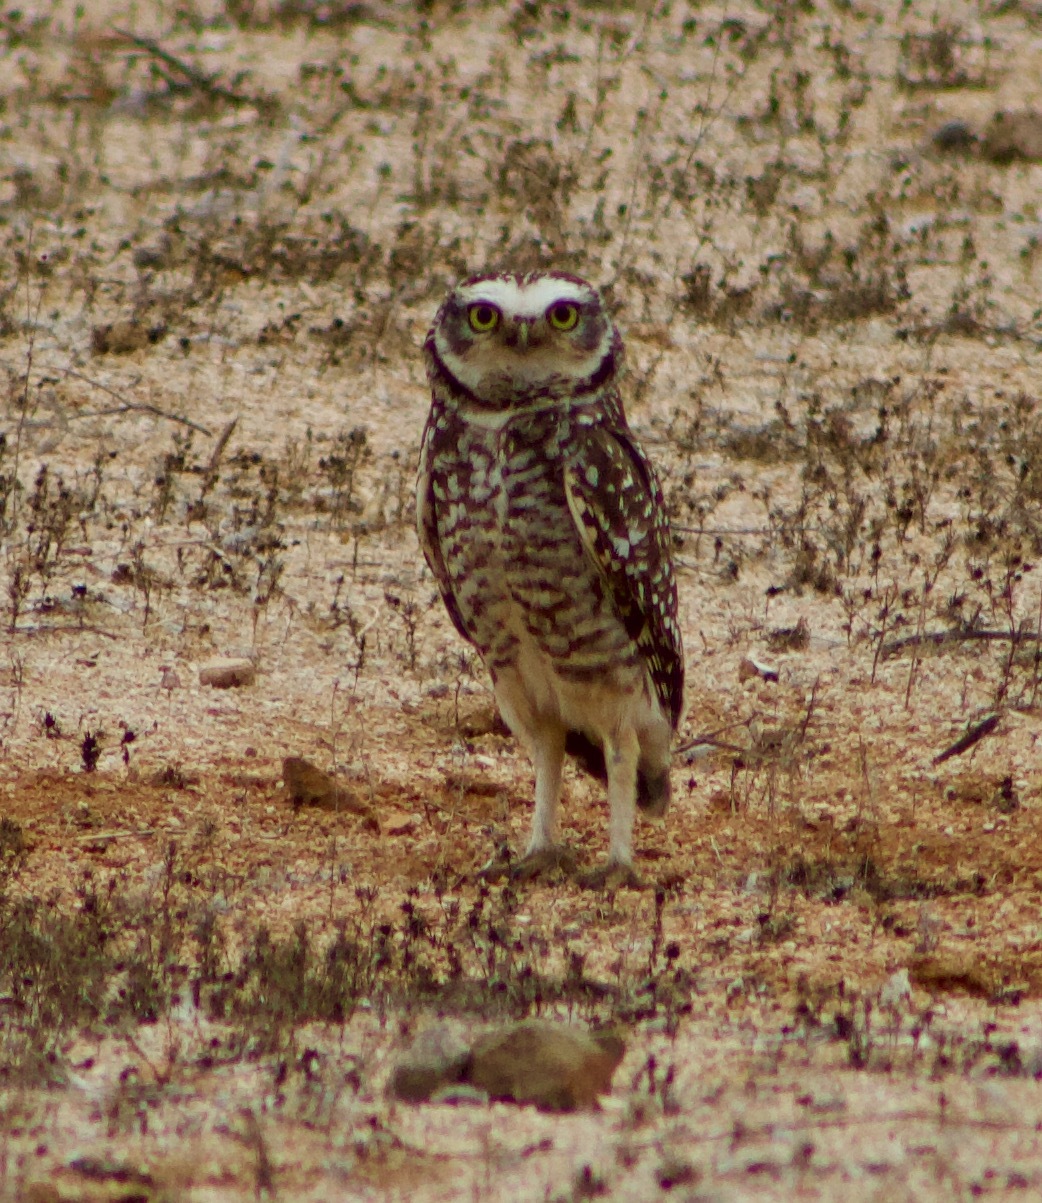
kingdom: Animalia
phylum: Chordata
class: Aves
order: Strigiformes
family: Strigidae
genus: Athene
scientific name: Athene cunicularia
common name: Burrowing owl
